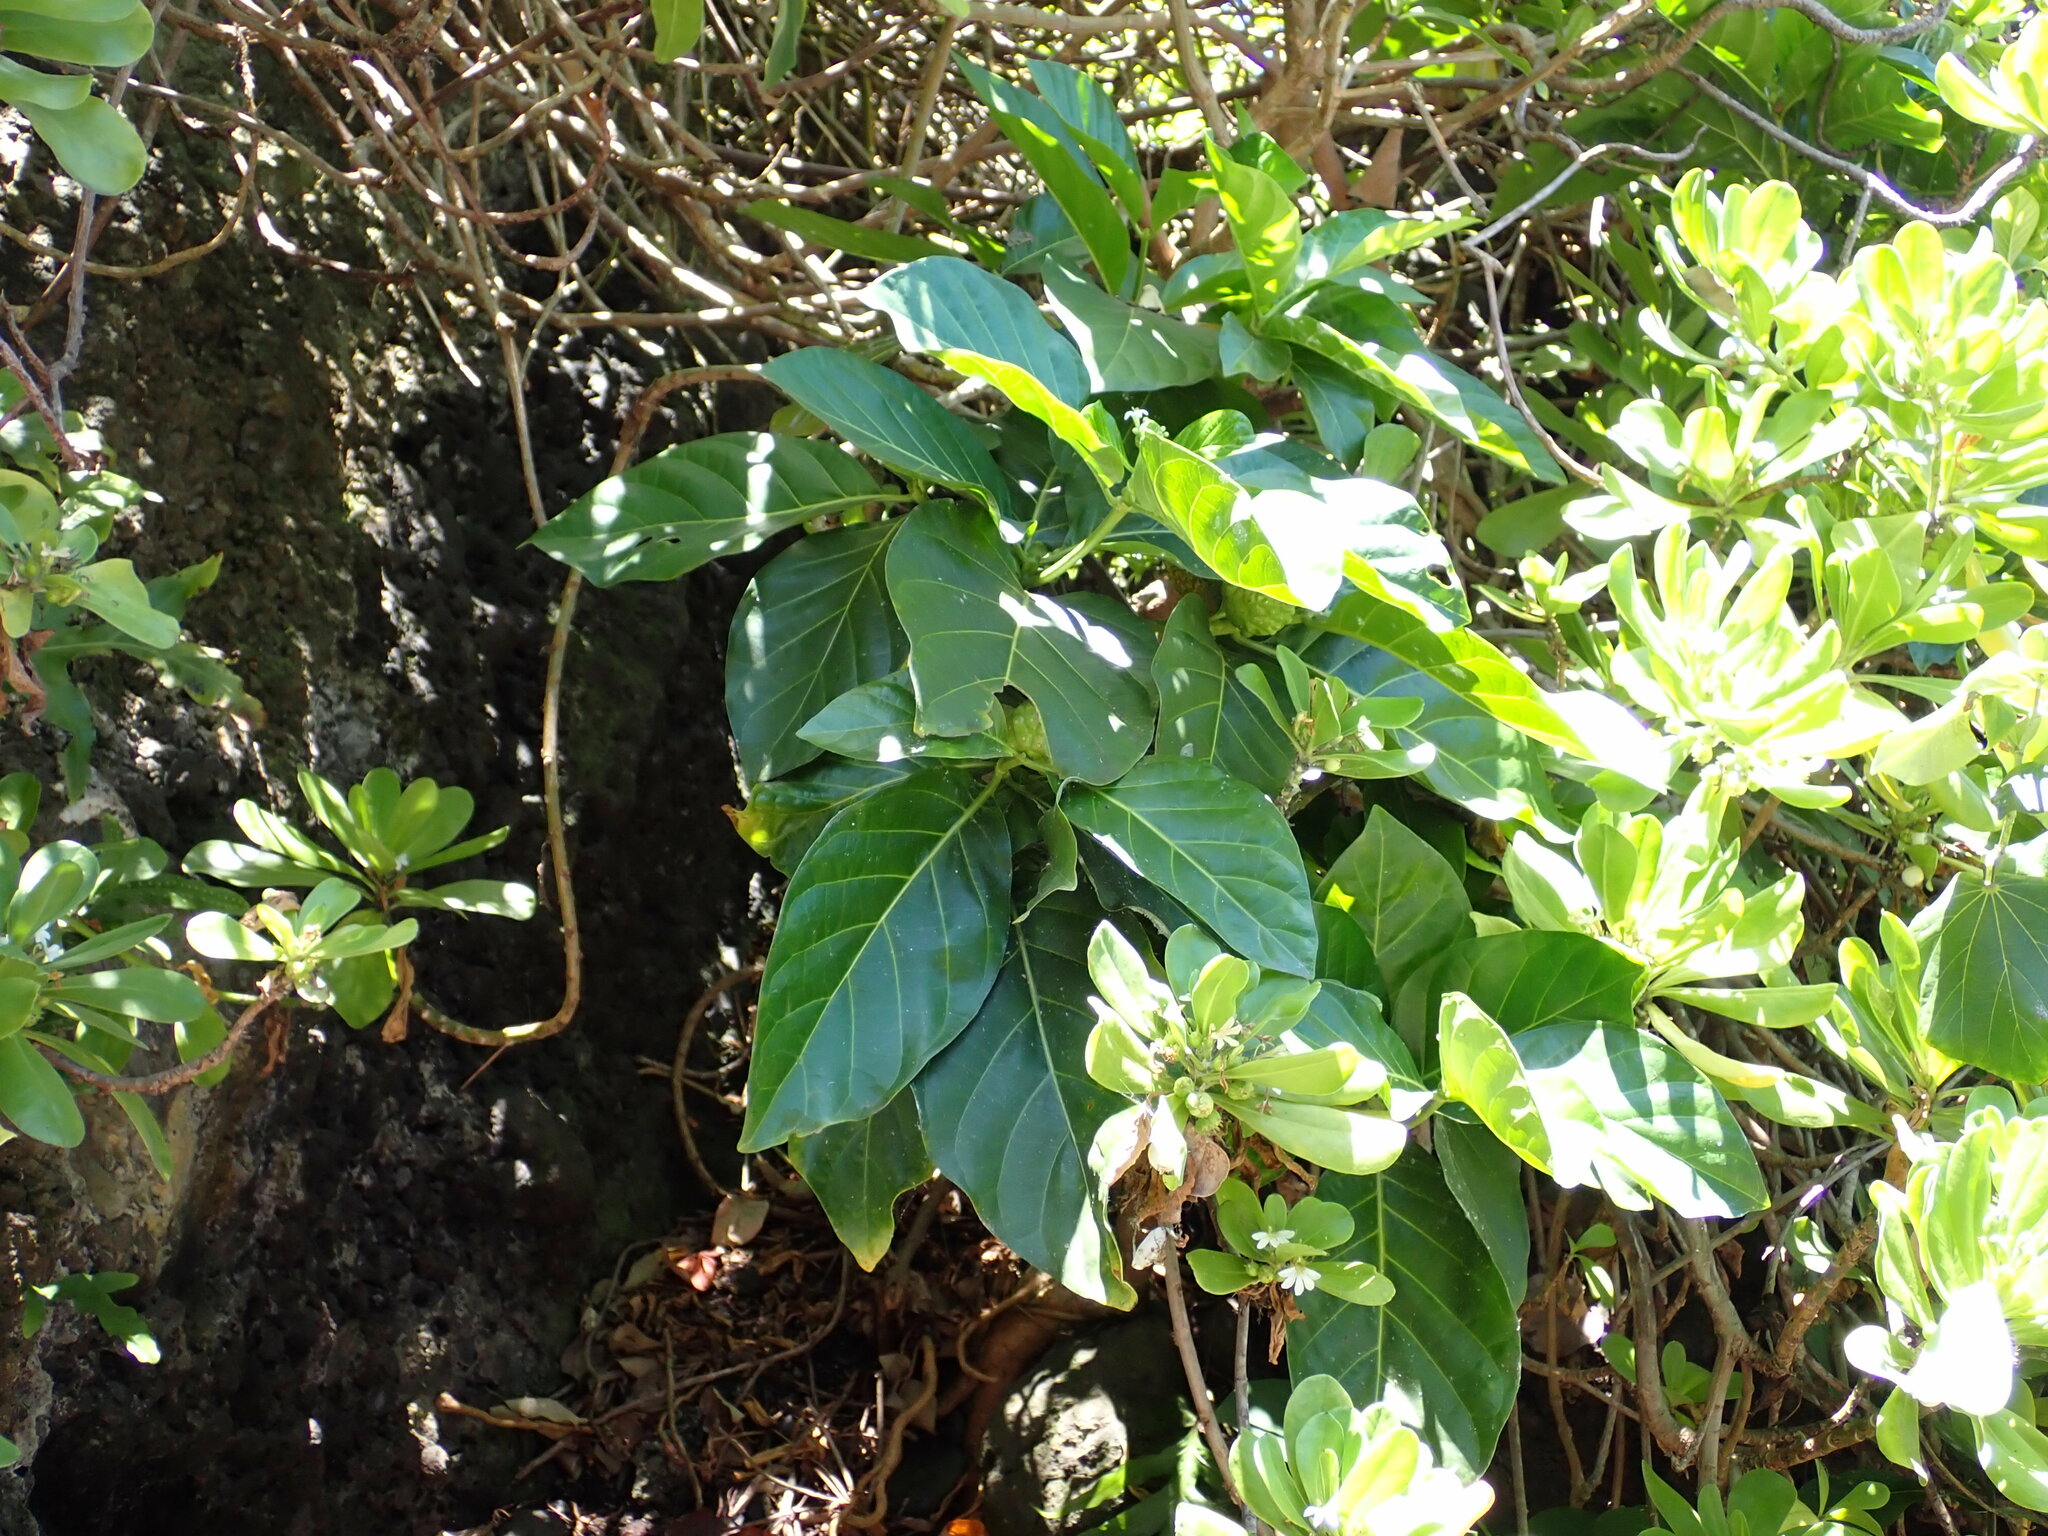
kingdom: Plantae
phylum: Tracheophyta
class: Magnoliopsida
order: Gentianales
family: Rubiaceae
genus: Morinda
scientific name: Morinda citrifolia
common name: Indian-mulberry
